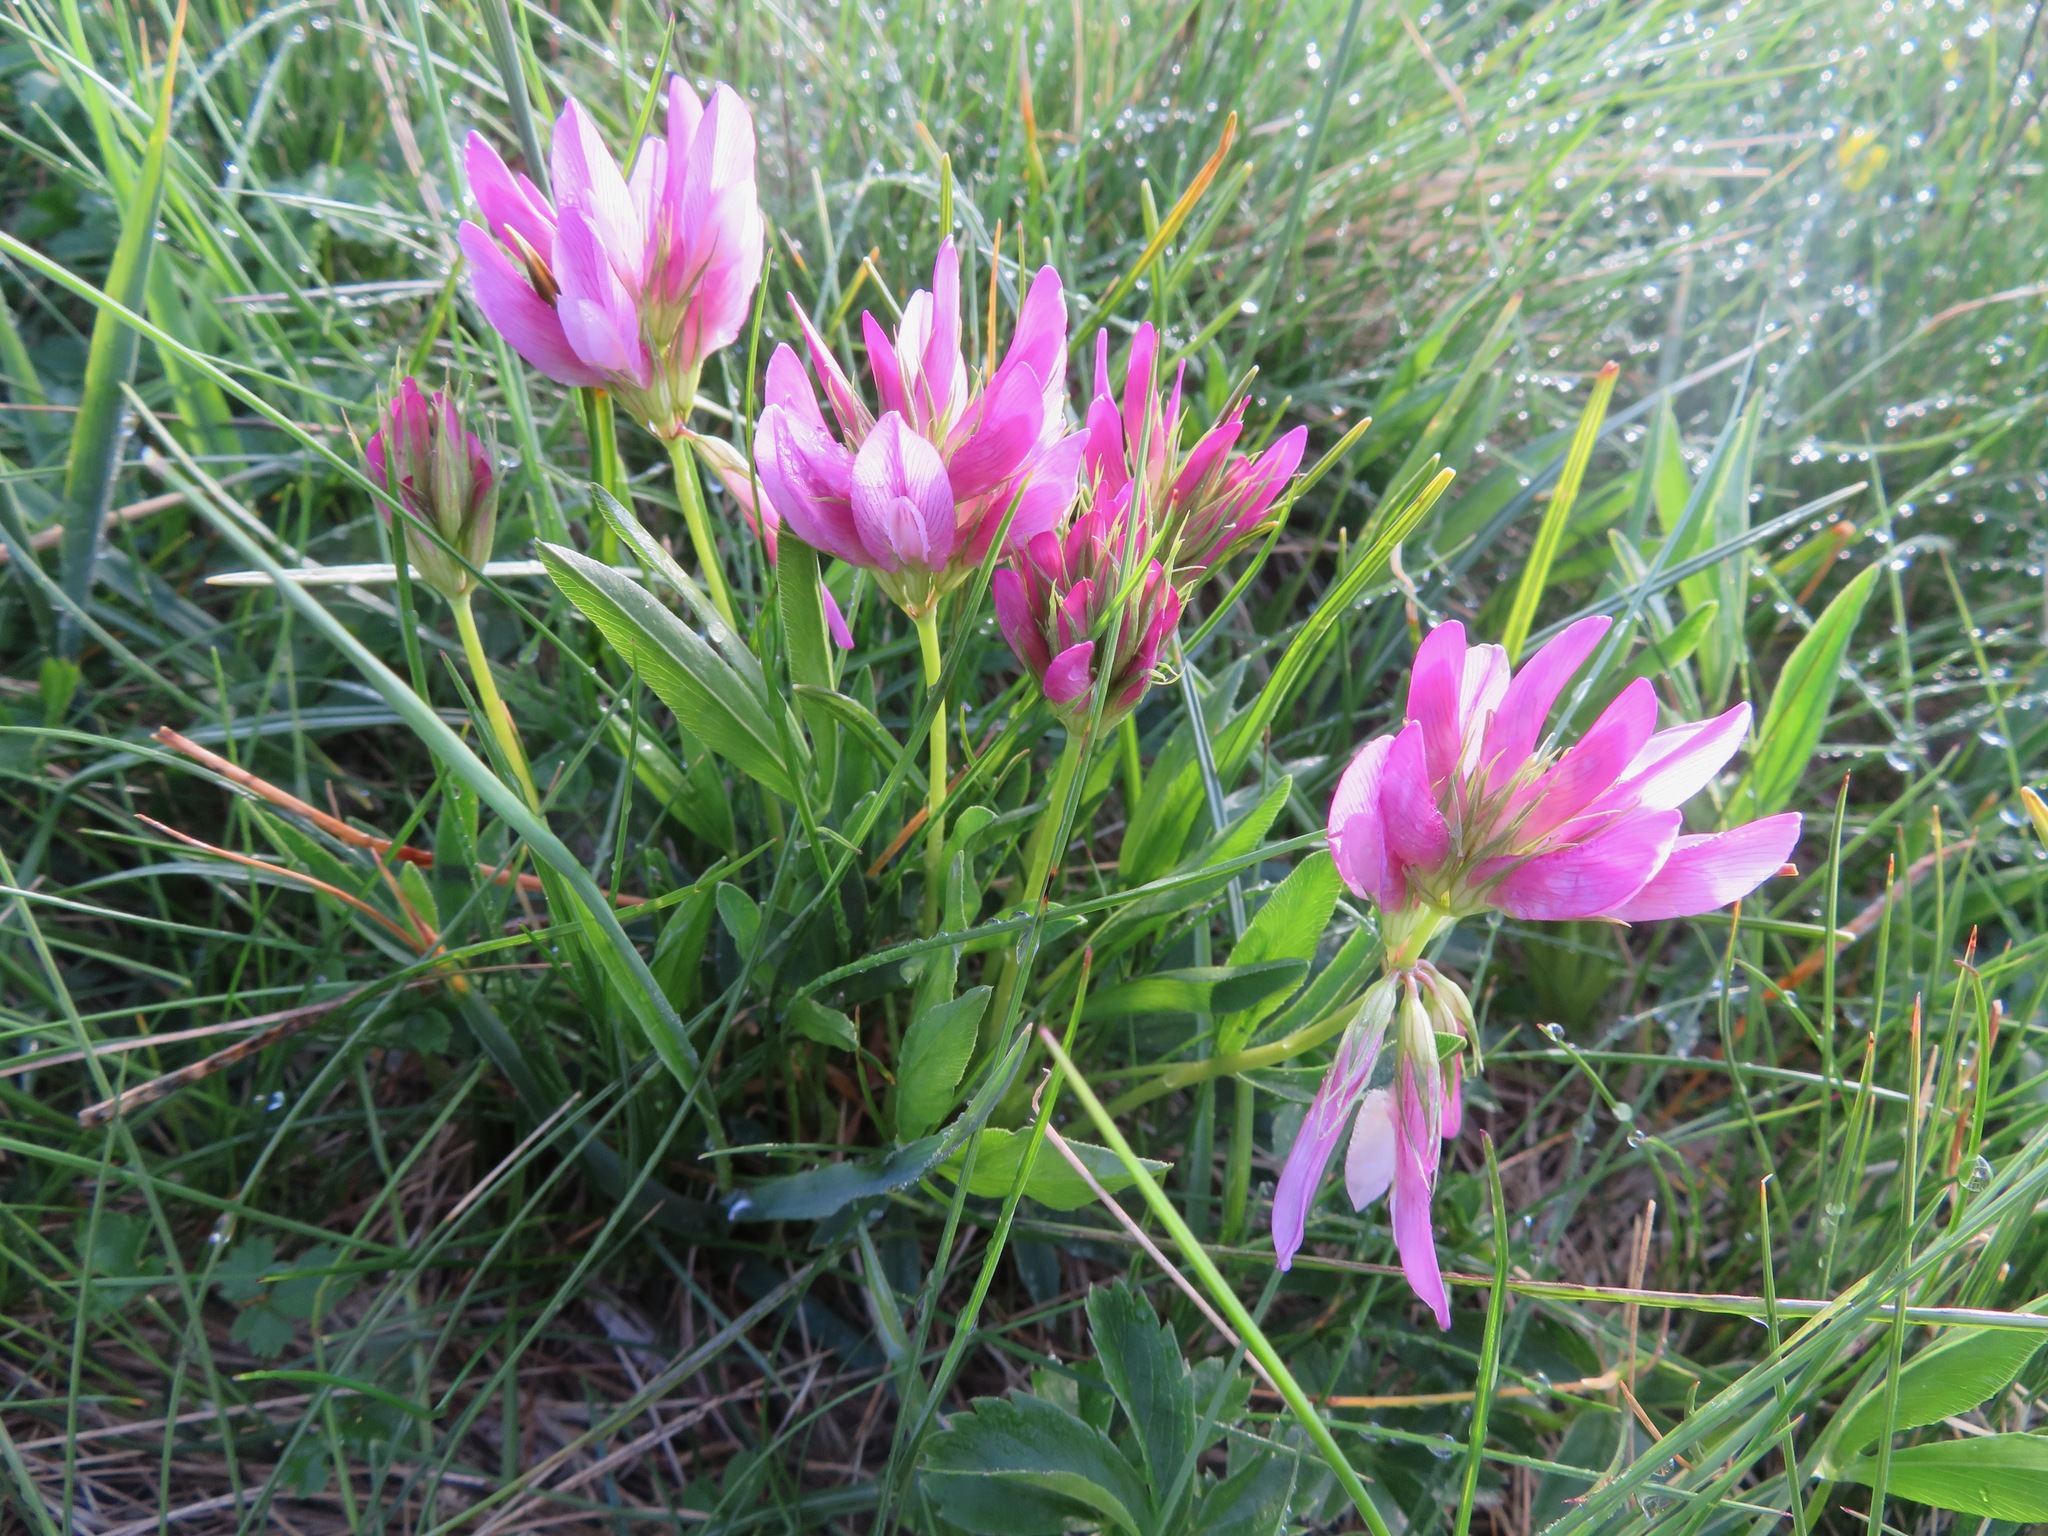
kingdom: Plantae
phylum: Tracheophyta
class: Magnoliopsida
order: Fabales
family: Fabaceae
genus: Trifolium
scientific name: Trifolium alpinum
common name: Alpine clover
